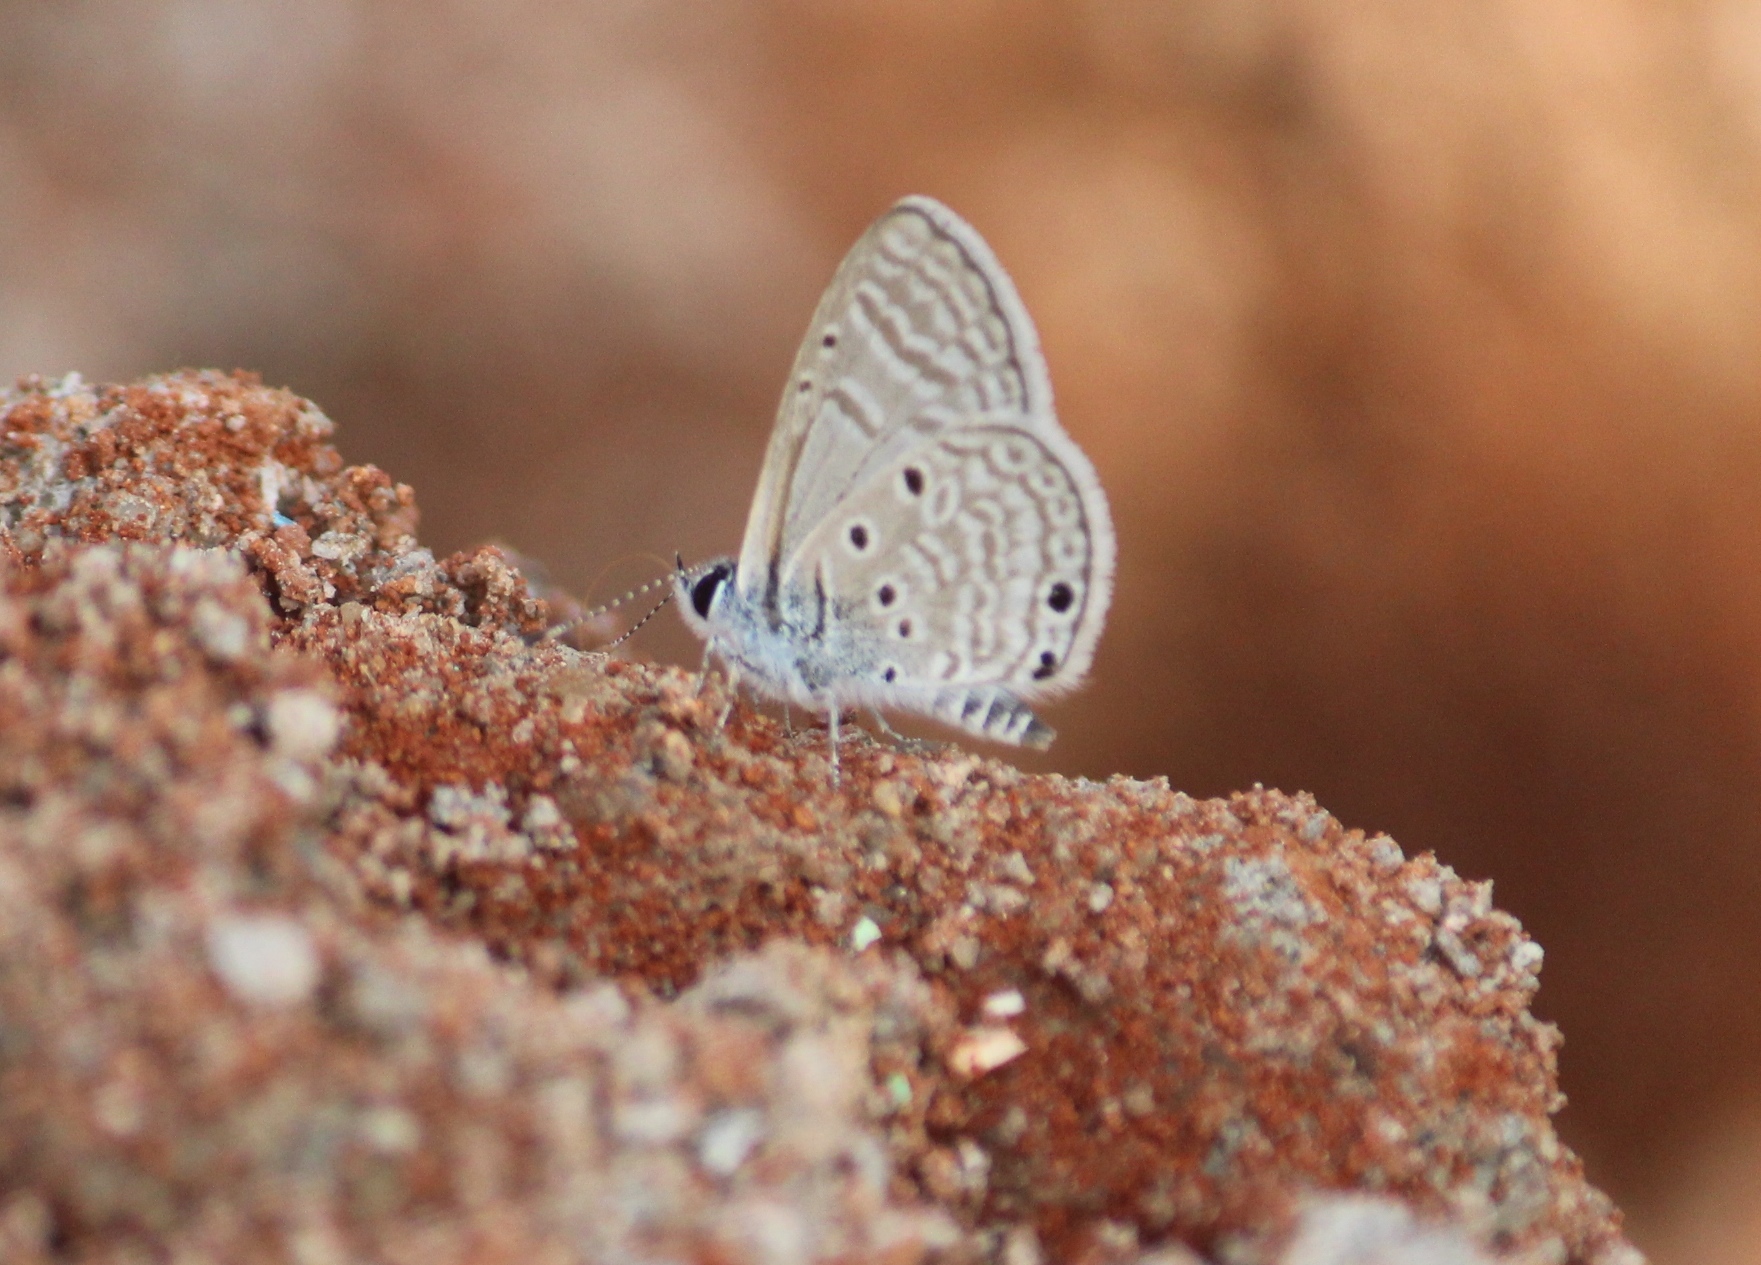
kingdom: Animalia
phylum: Arthropoda
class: Insecta
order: Lepidoptera
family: Lycaenidae
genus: Azanus
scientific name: Azanus ubaldus
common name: Desert babul blue
